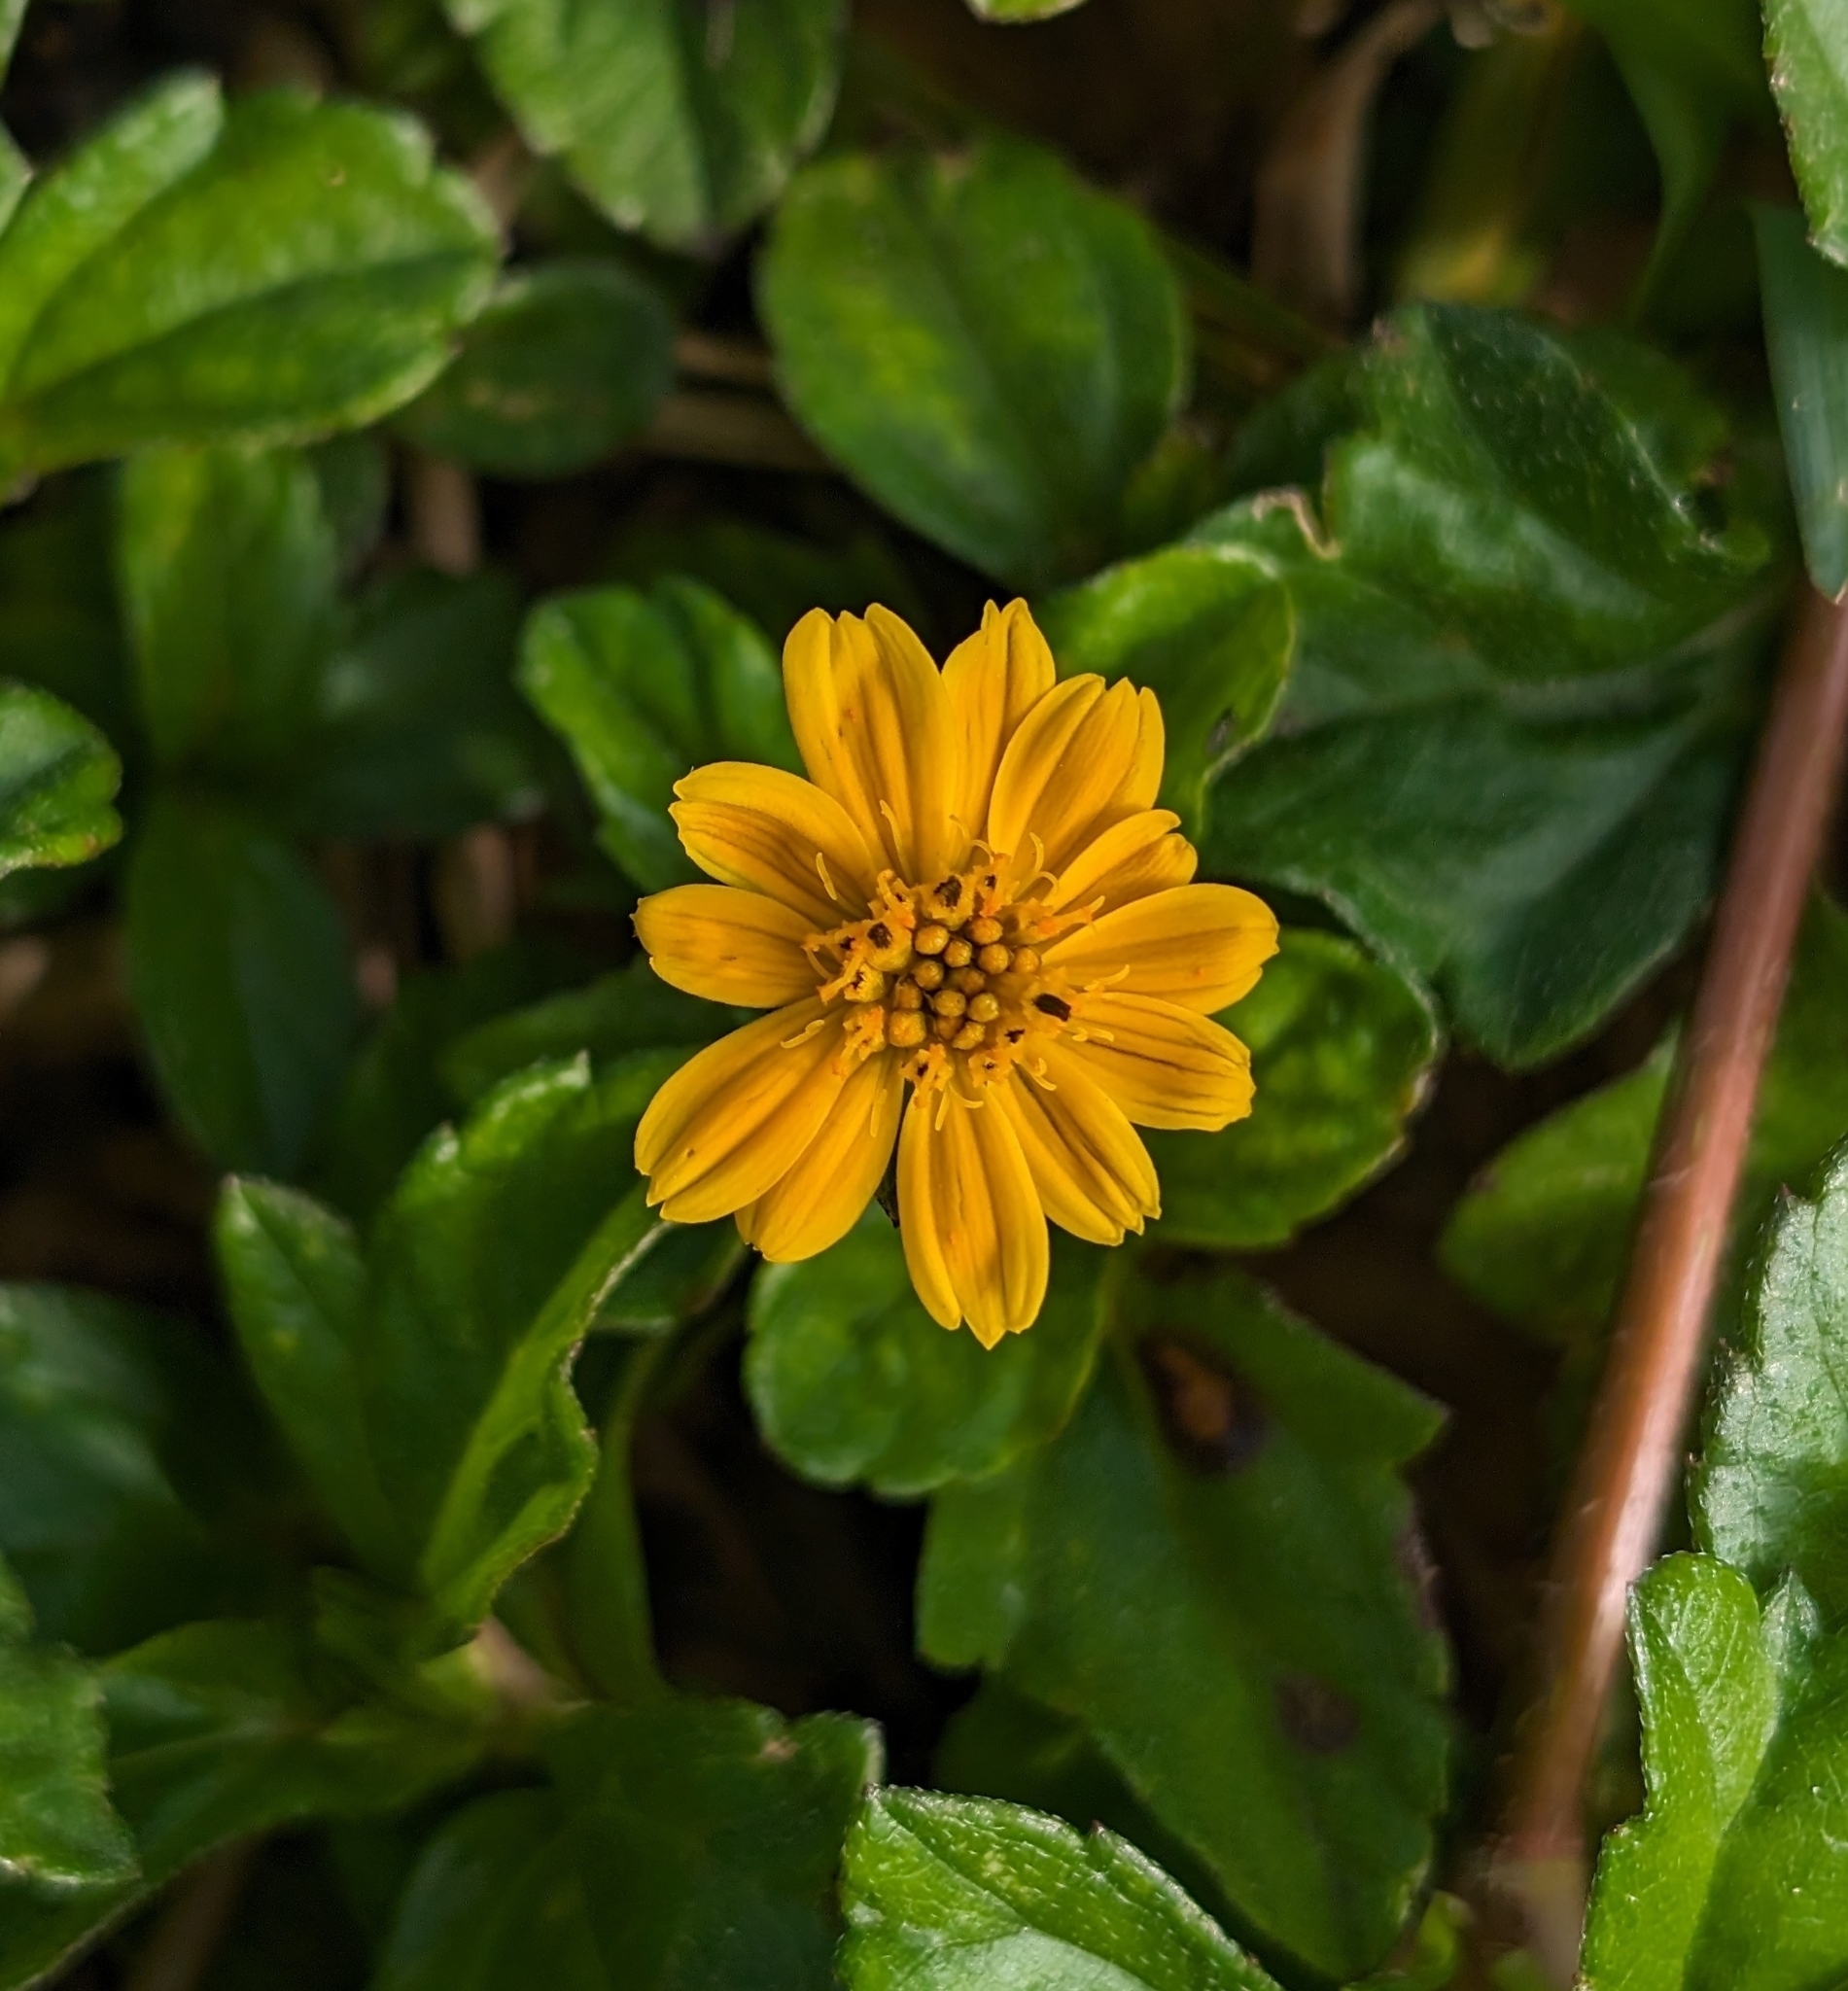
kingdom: Plantae
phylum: Tracheophyta
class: Magnoliopsida
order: Asterales
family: Asteraceae
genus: Sphagneticola
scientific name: Sphagneticola trilobata
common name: Bay biscayne creeping-oxeye
